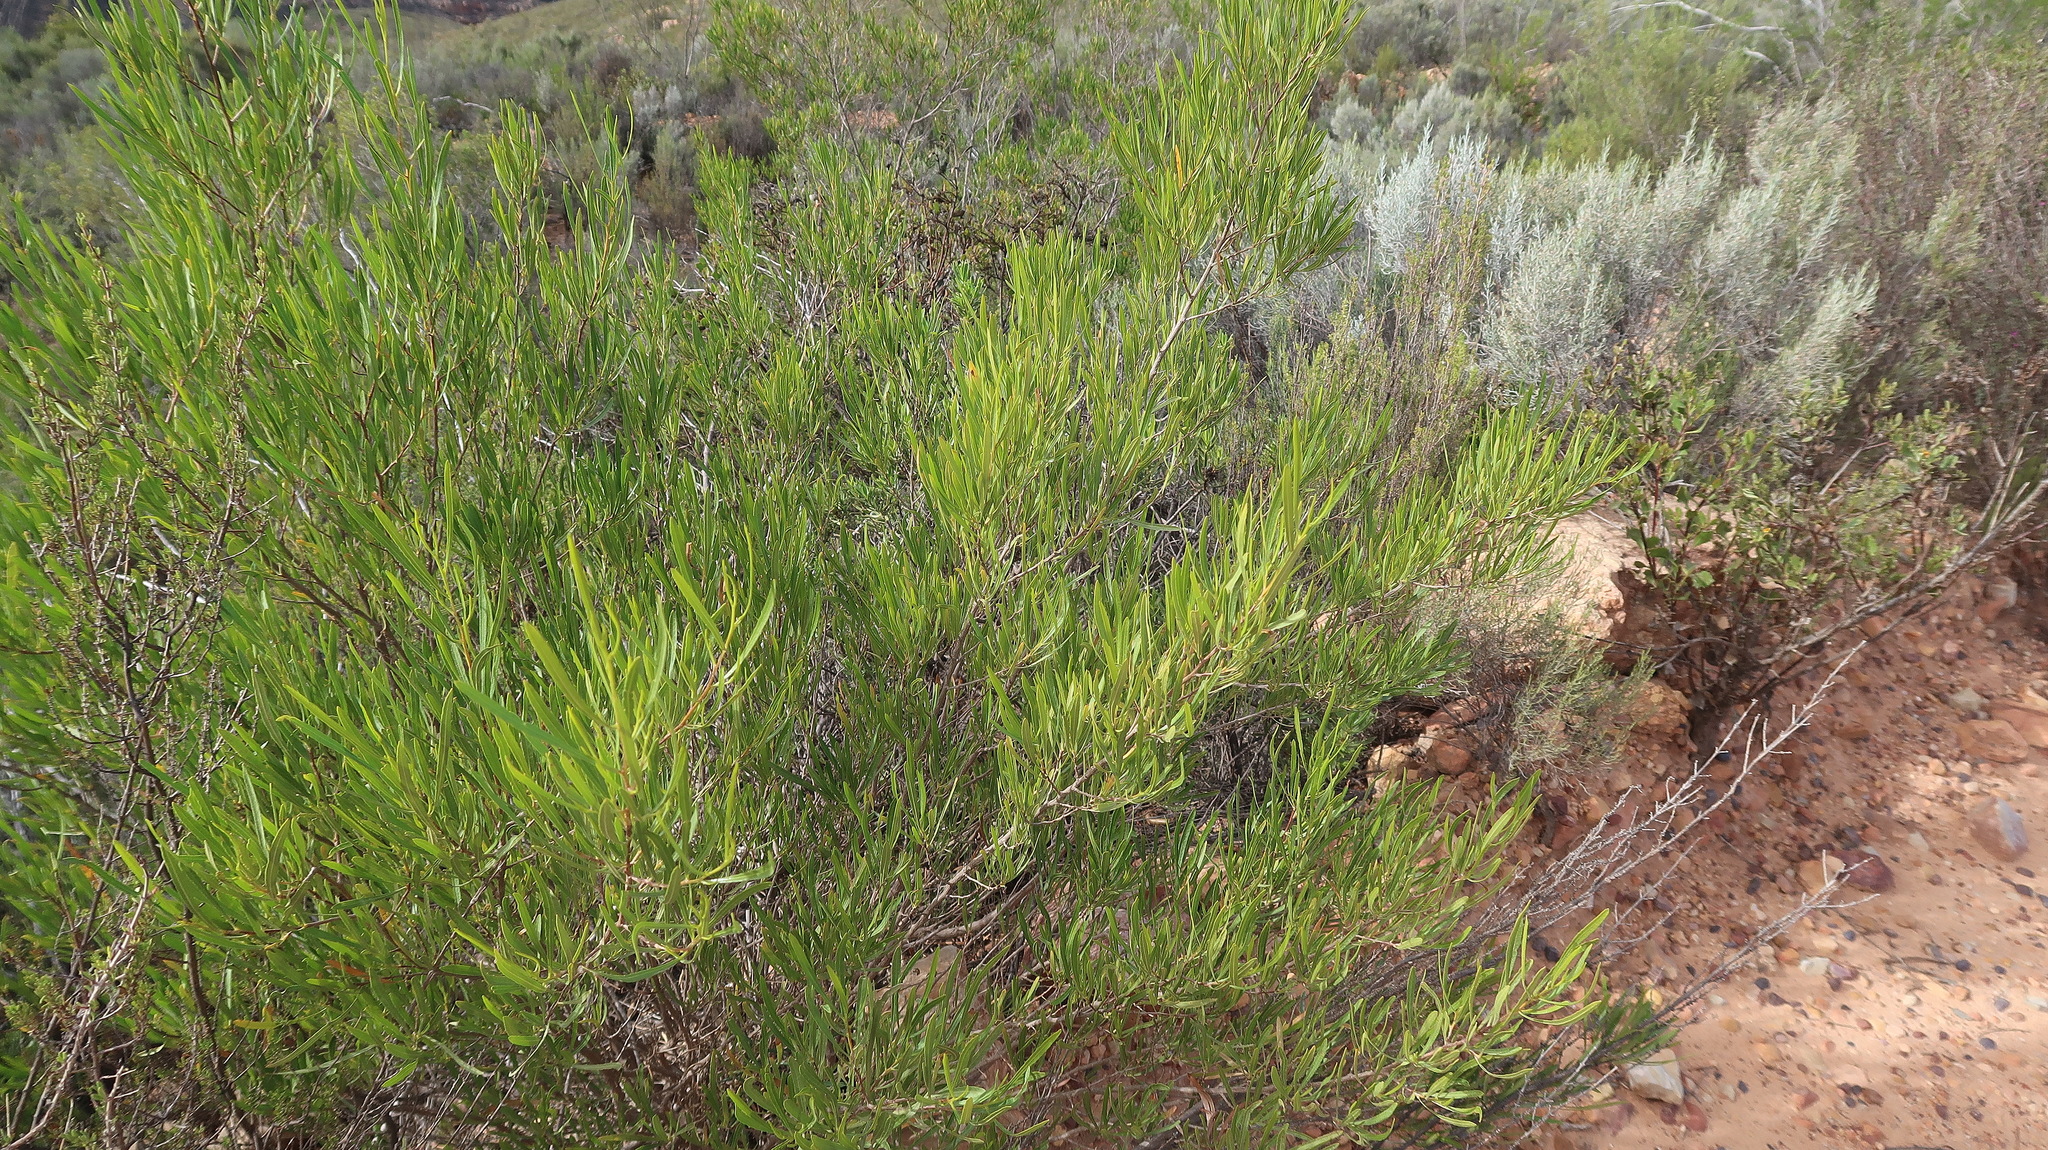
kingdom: Plantae
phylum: Tracheophyta
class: Magnoliopsida
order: Sapindales
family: Sapindaceae
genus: Dodonaea
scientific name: Dodonaea viscosa
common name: Hopbush
